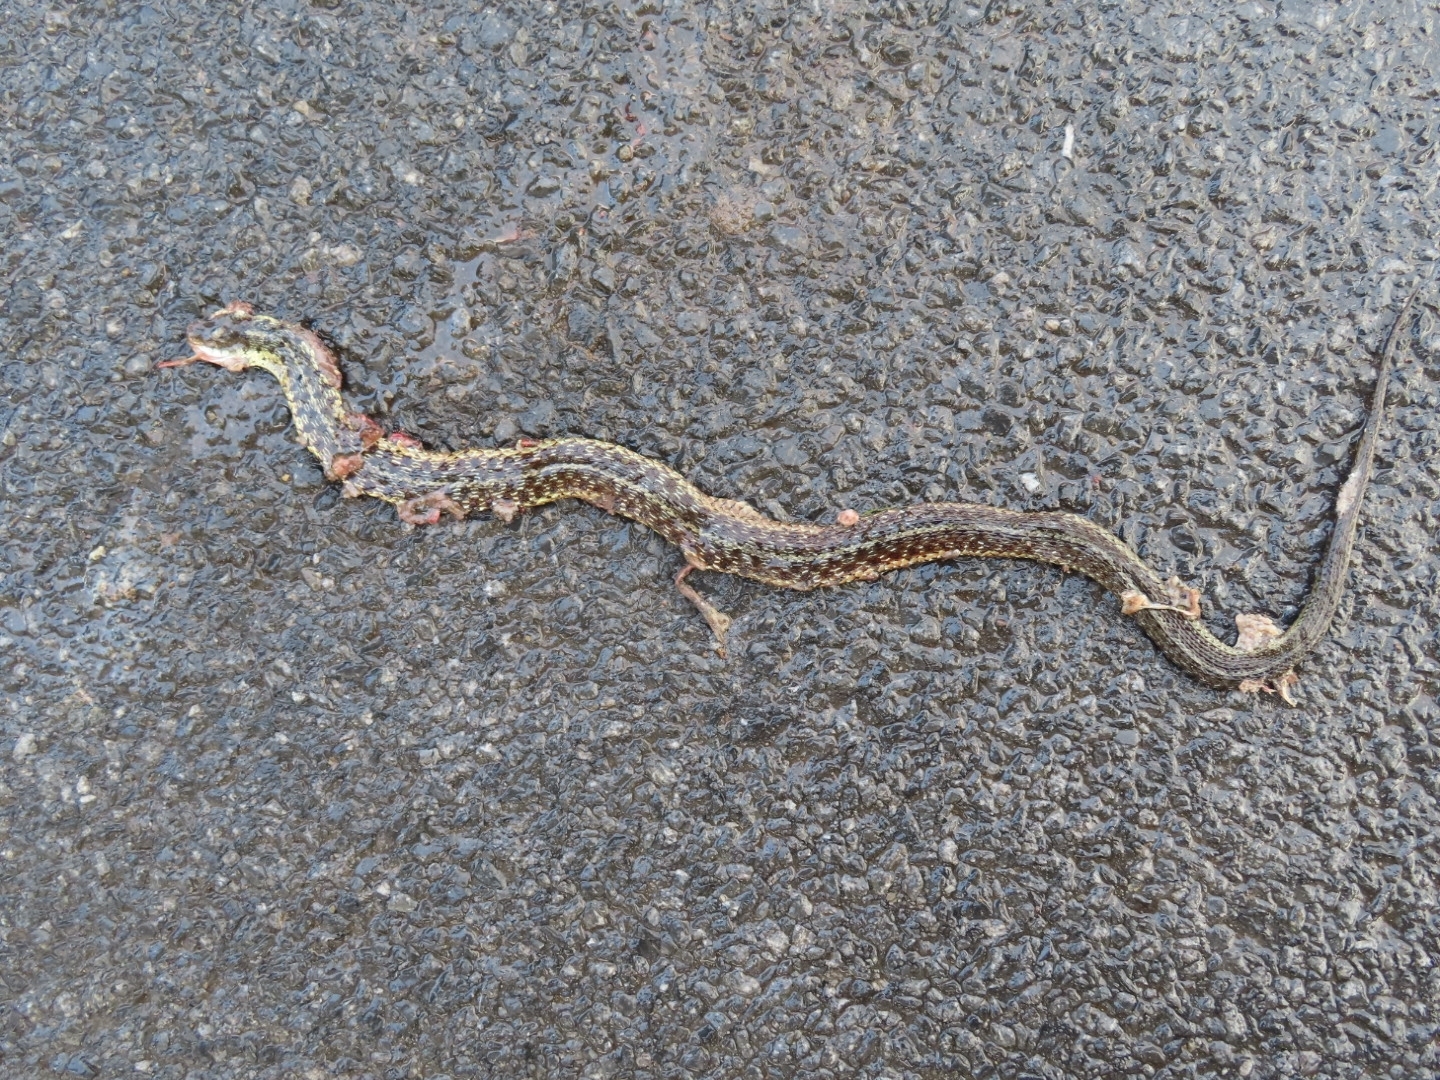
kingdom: Animalia
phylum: Chordata
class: Squamata
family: Colubridae
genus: Thamnophis
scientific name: Thamnophis sirtalis
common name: Common garter snake
